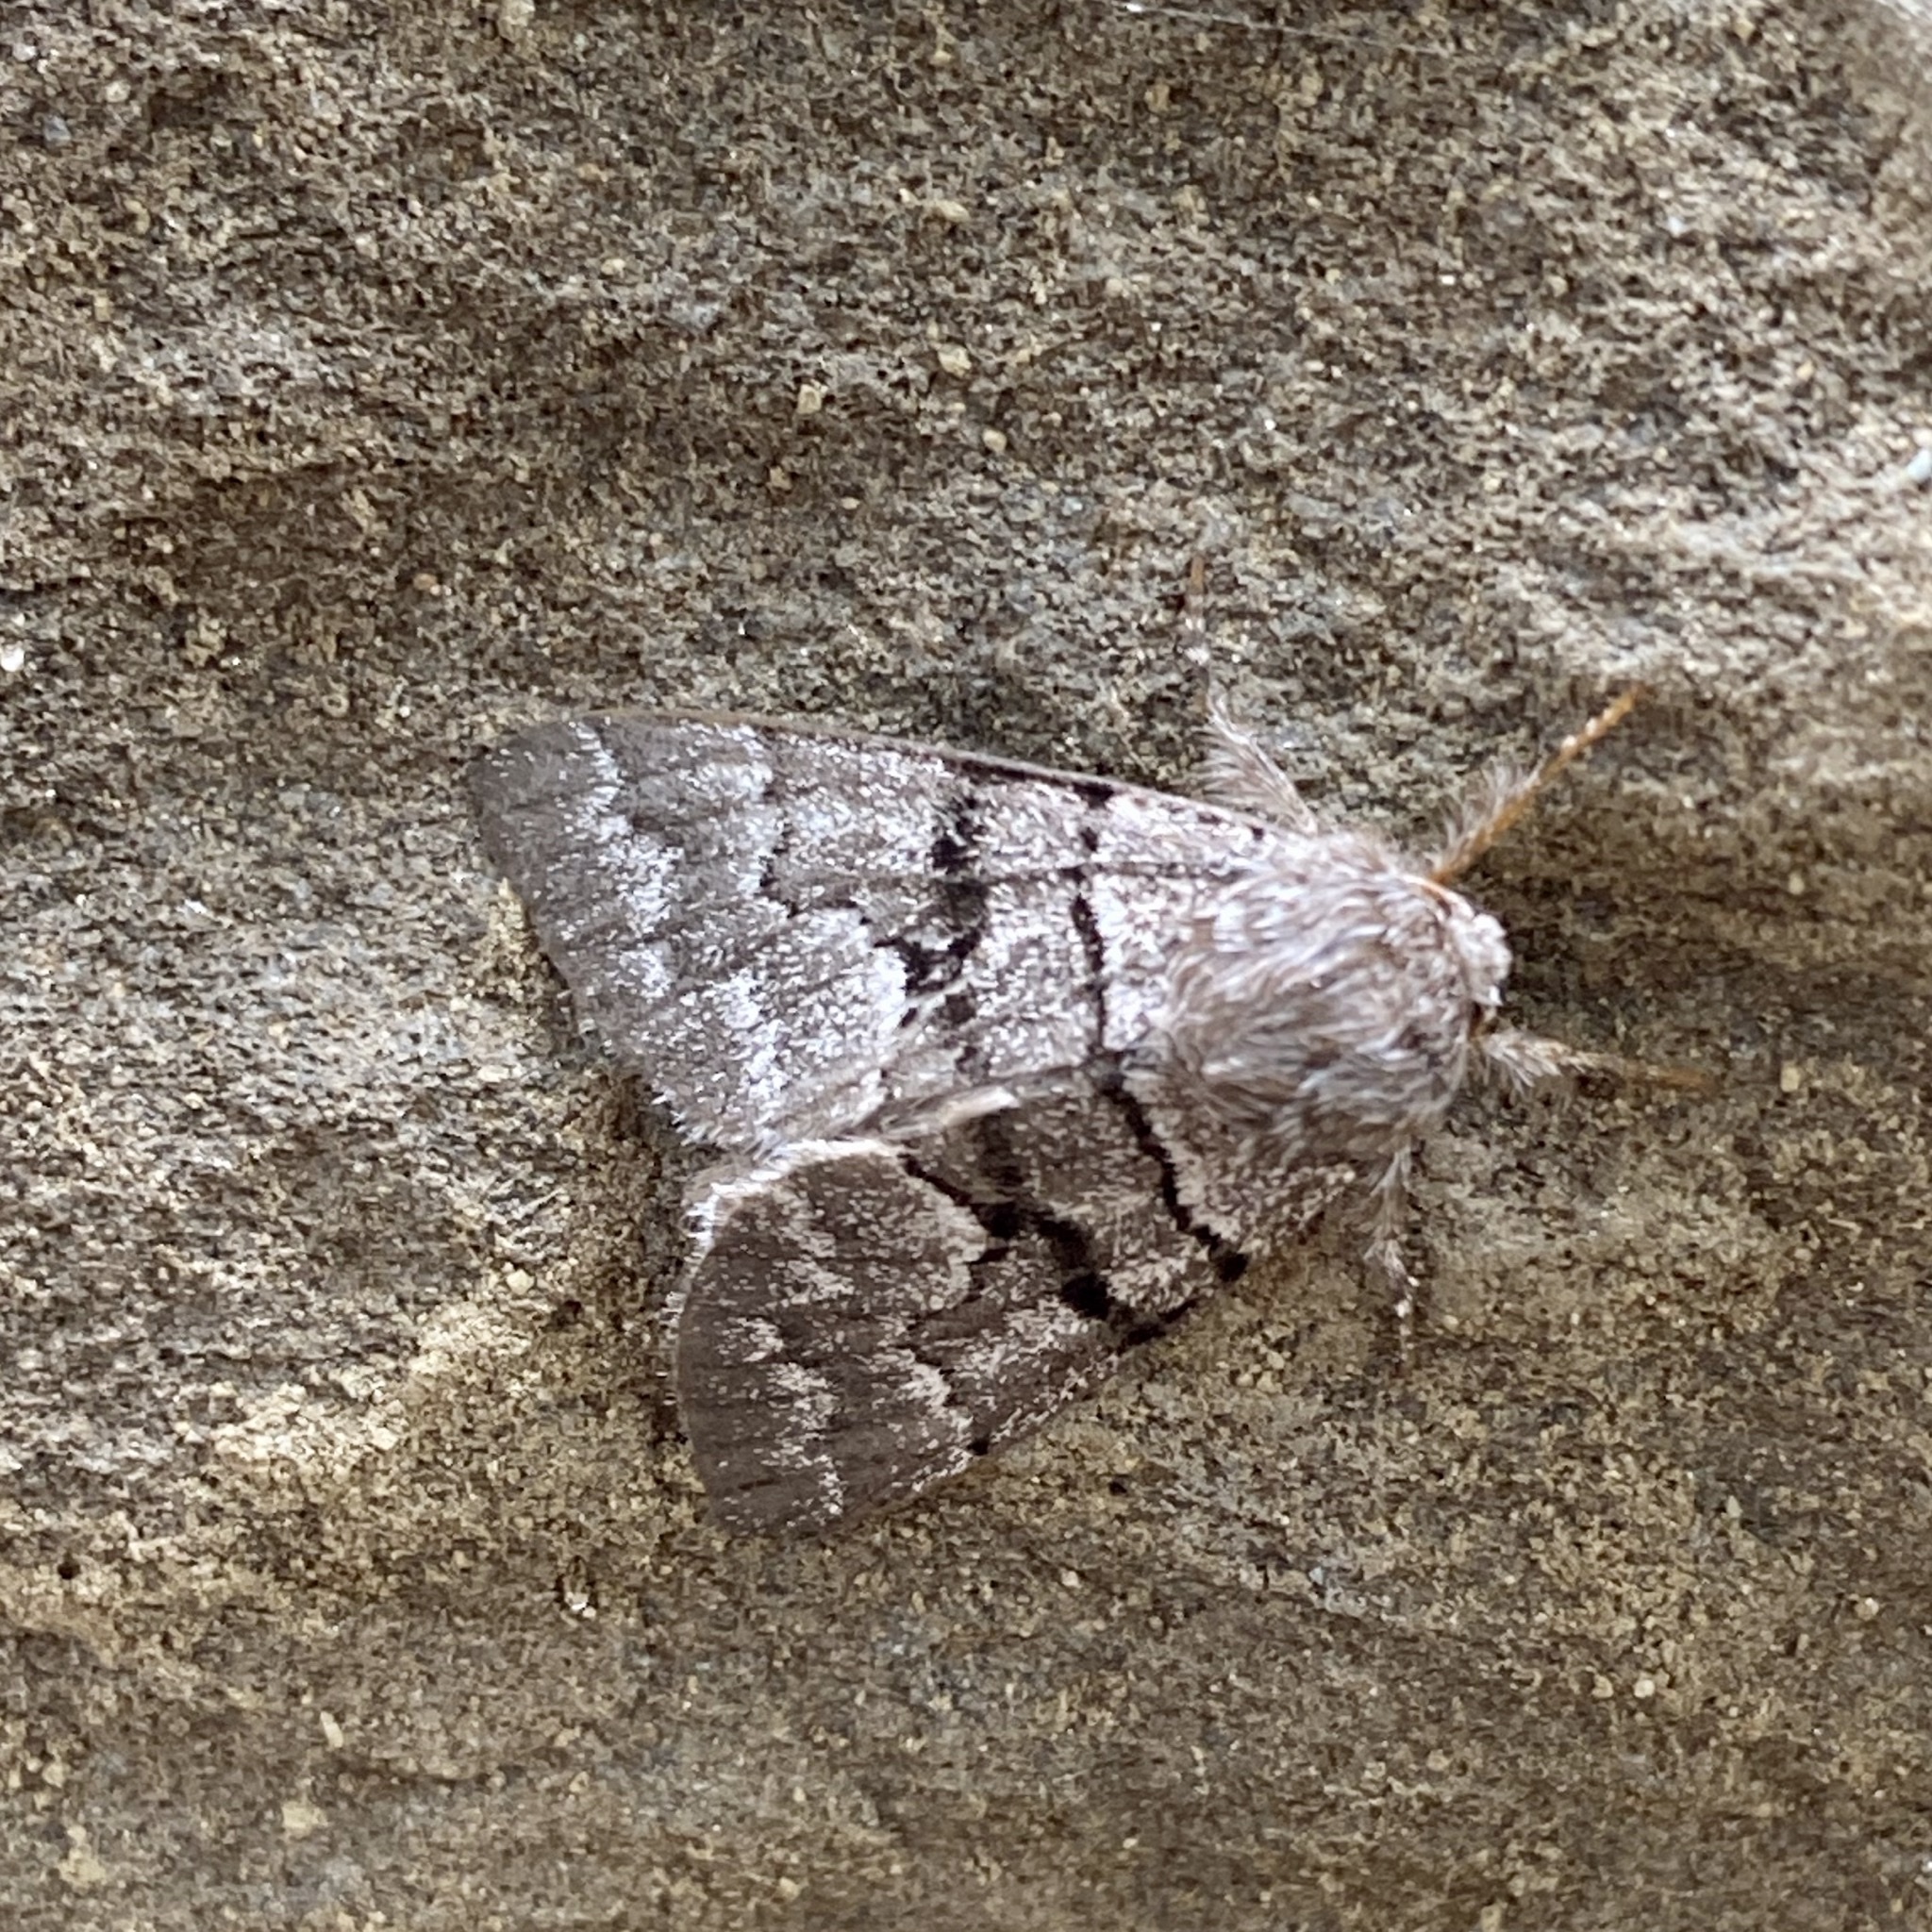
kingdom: Animalia
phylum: Arthropoda
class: Insecta
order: Lepidoptera
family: Noctuidae
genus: Panthea
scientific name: Panthea furcilla
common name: Eastern panthea moth
